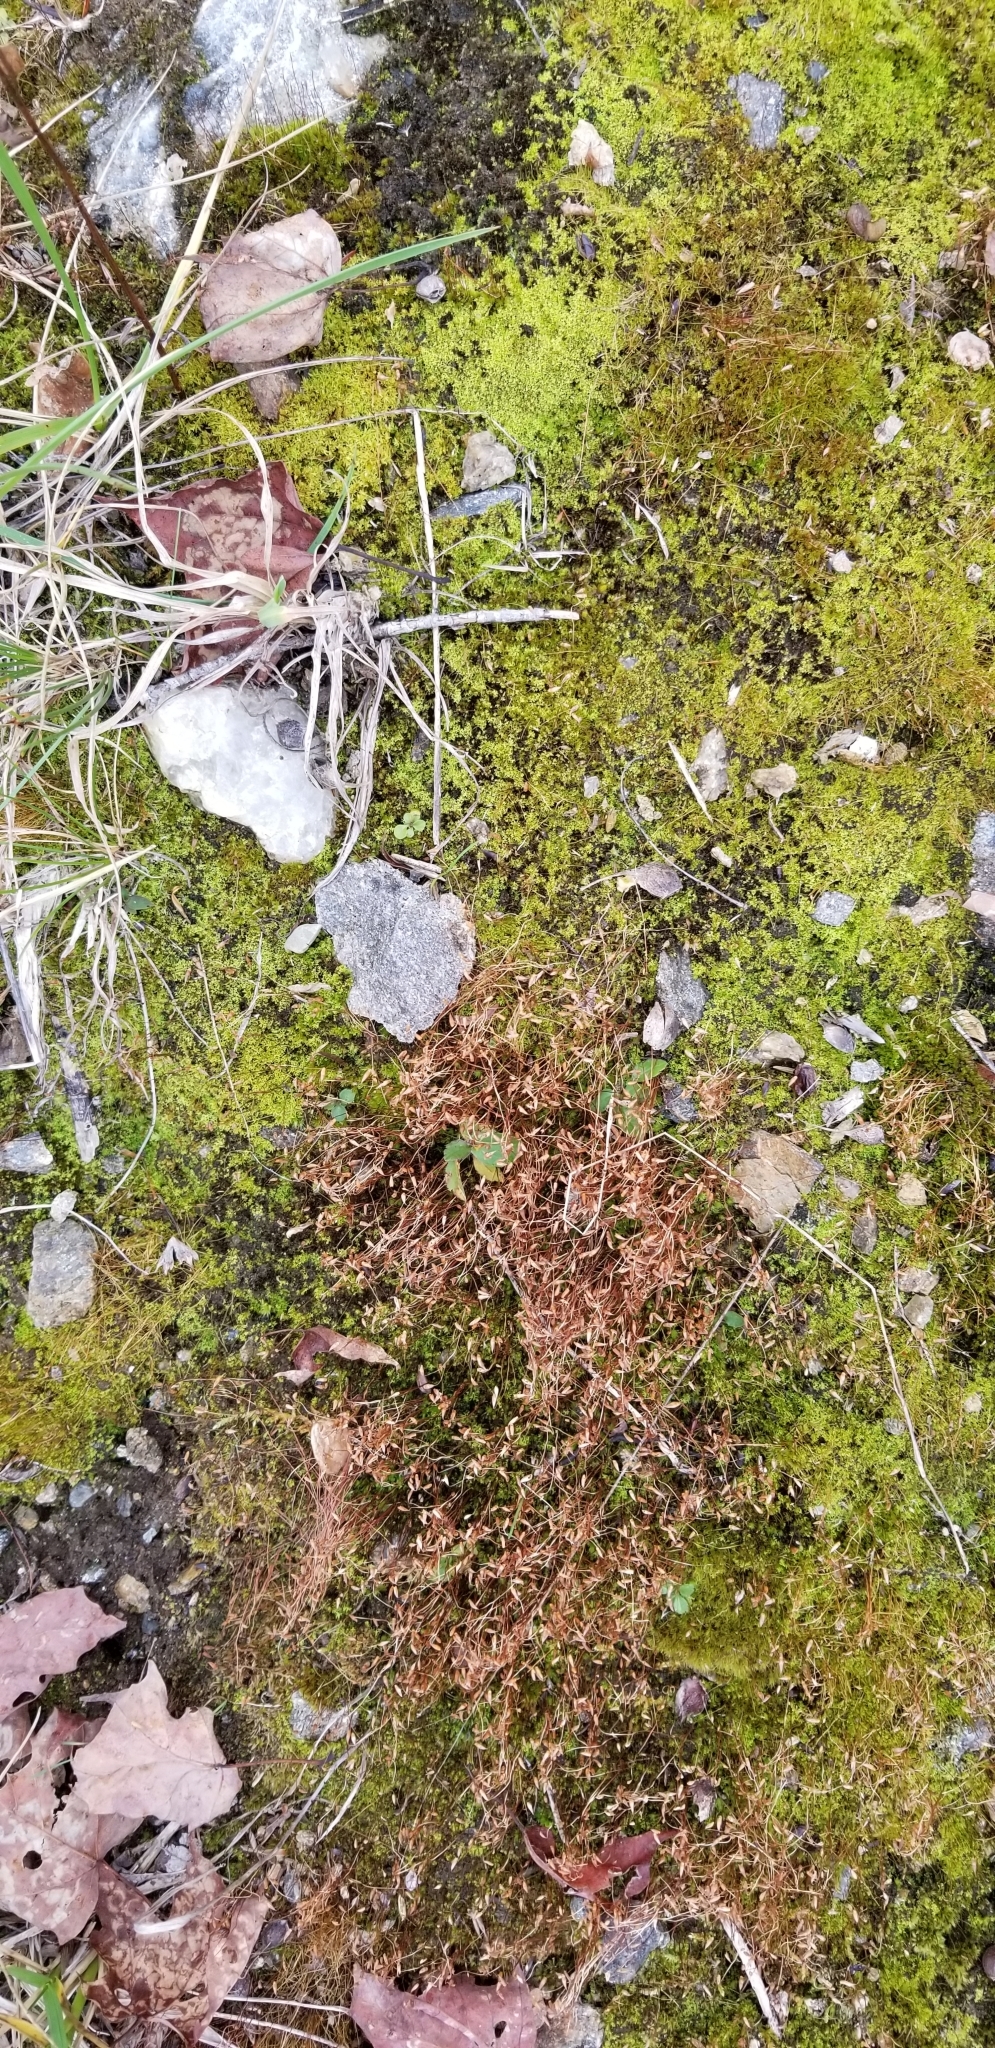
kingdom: Plantae
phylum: Bryophyta
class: Bryopsida
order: Dicranales
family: Ditrichaceae
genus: Ceratodon
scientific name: Ceratodon purpureus
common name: Redshank
